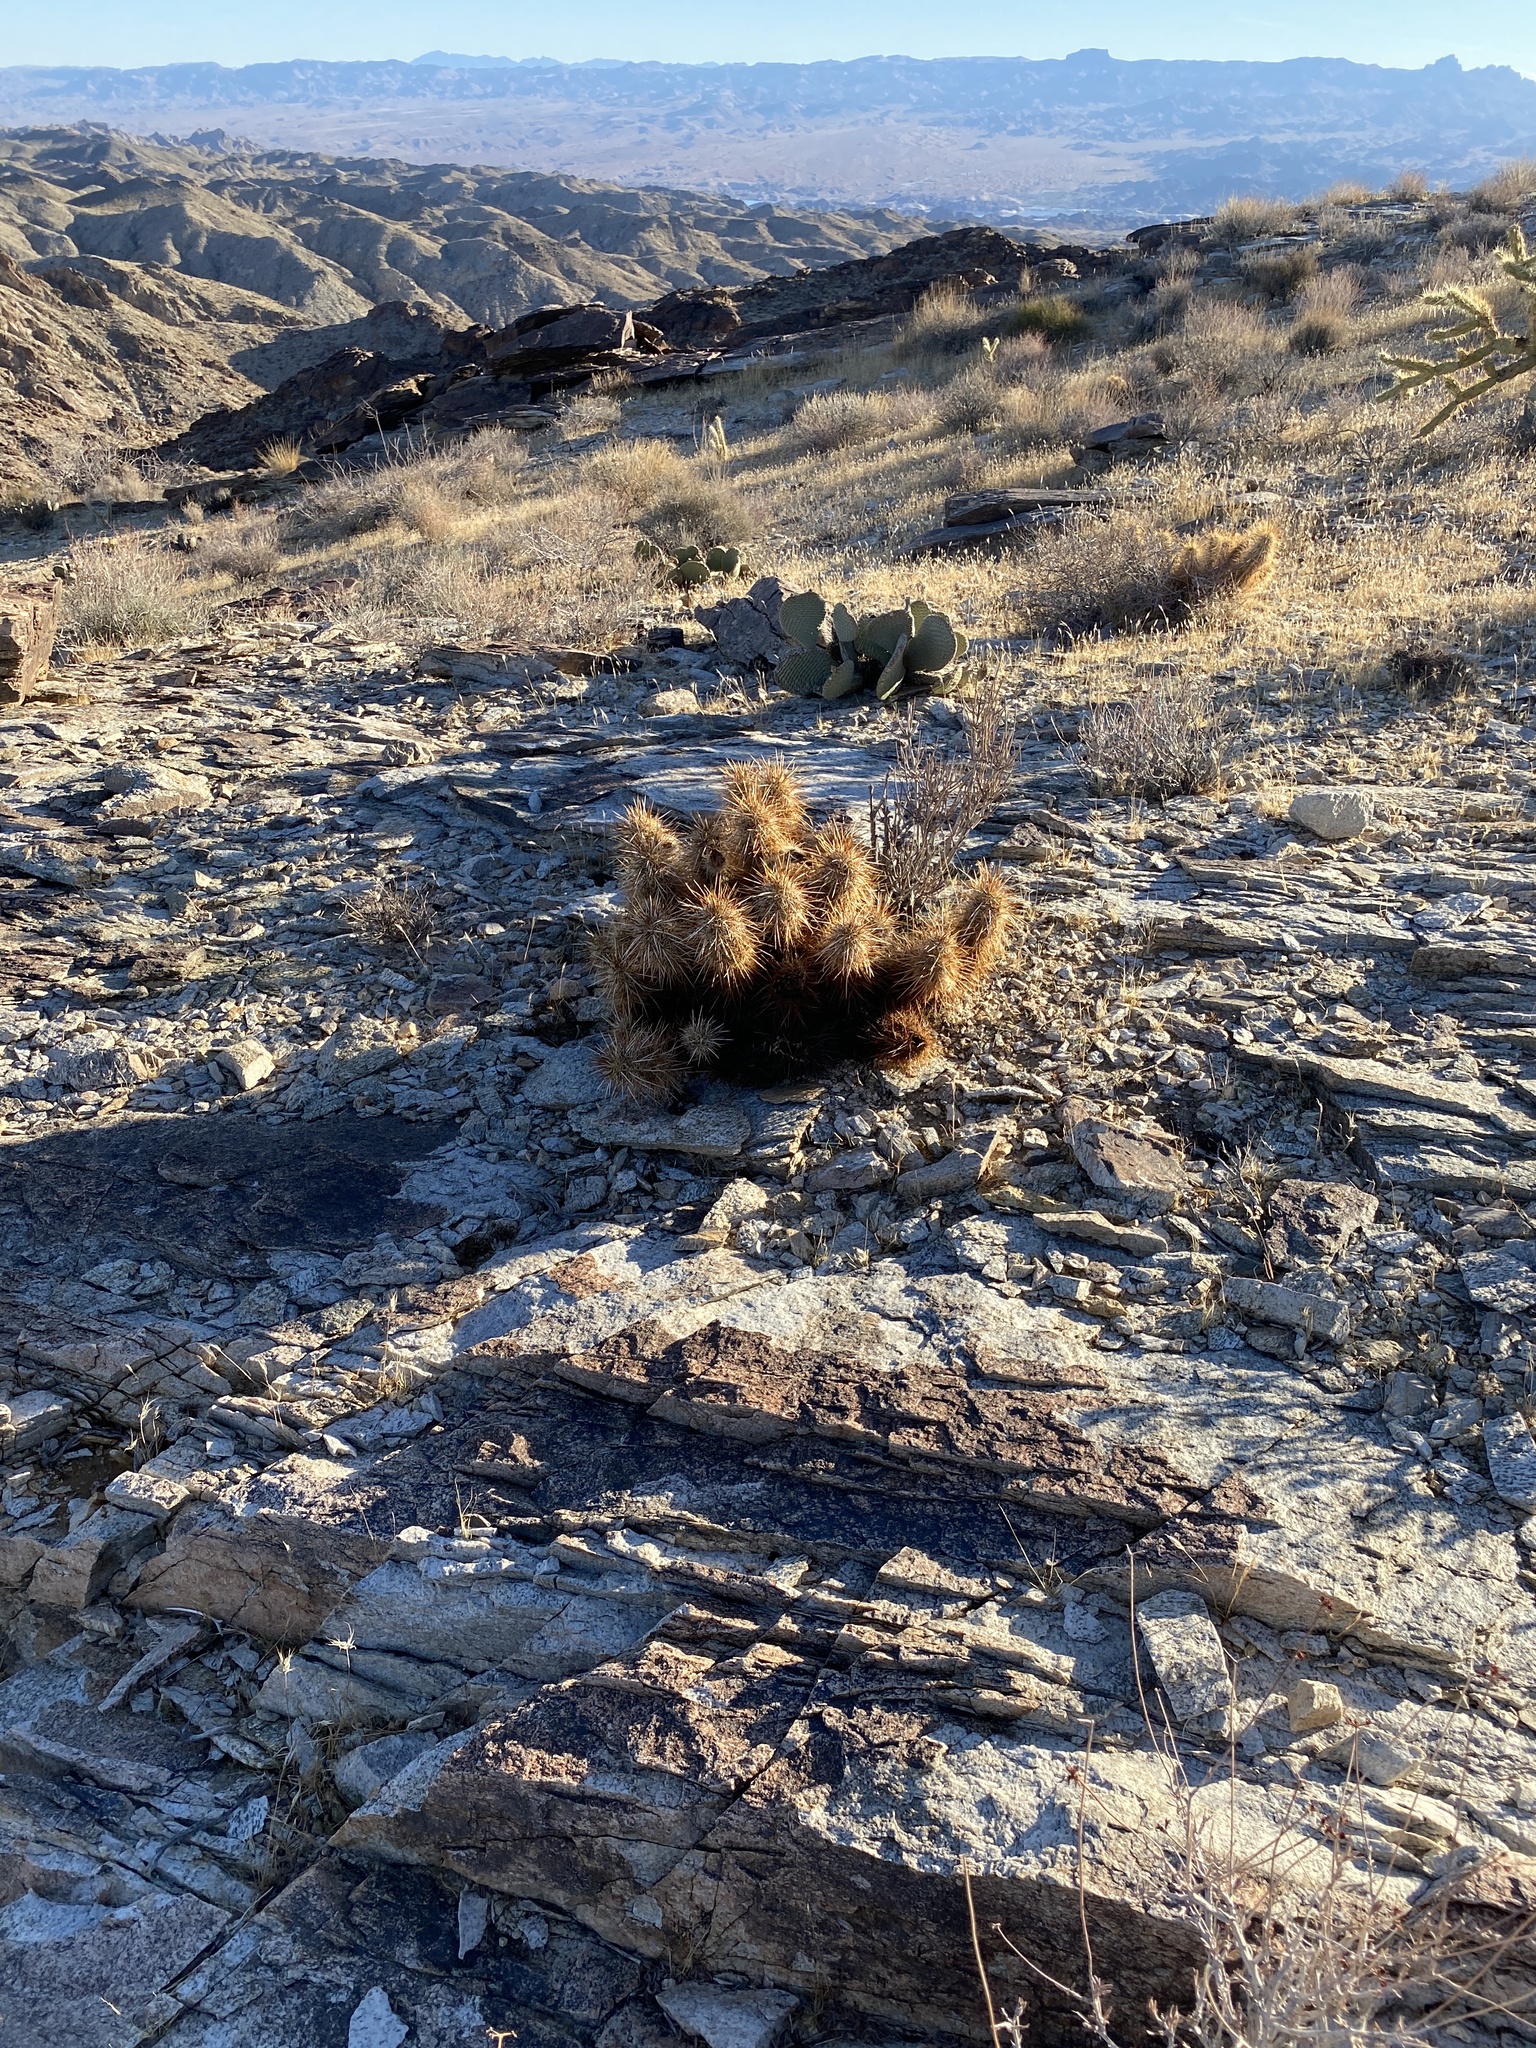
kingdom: Plantae
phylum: Tracheophyta
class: Magnoliopsida
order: Caryophyllales
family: Cactaceae
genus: Echinocereus
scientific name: Echinocereus engelmannii
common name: Engelmann's hedgehog cactus
